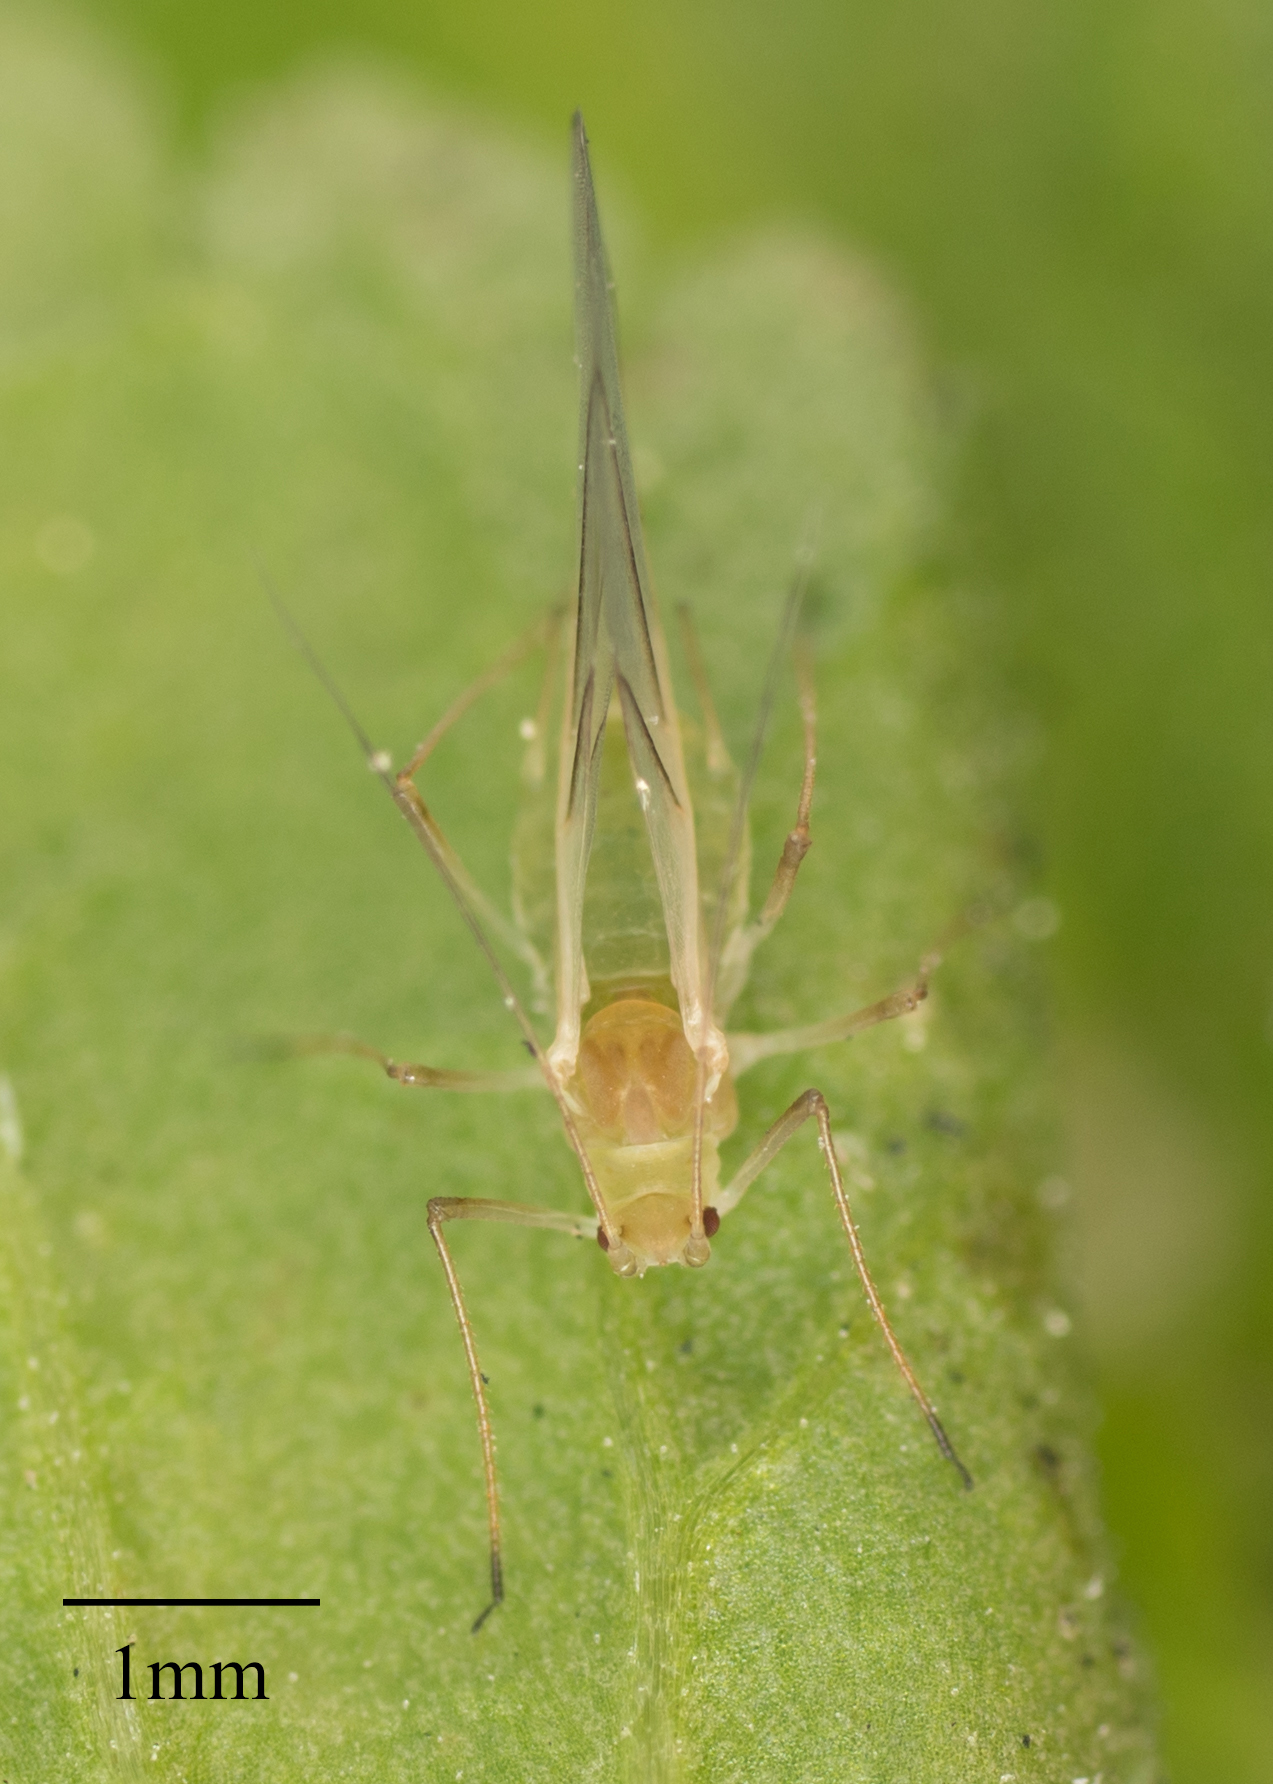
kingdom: Animalia
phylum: Arthropoda
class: Insecta
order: Hemiptera
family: Aphididae
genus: Acyrthosiphon
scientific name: Acyrthosiphon kondoi
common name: Blue alfalfa aphid
